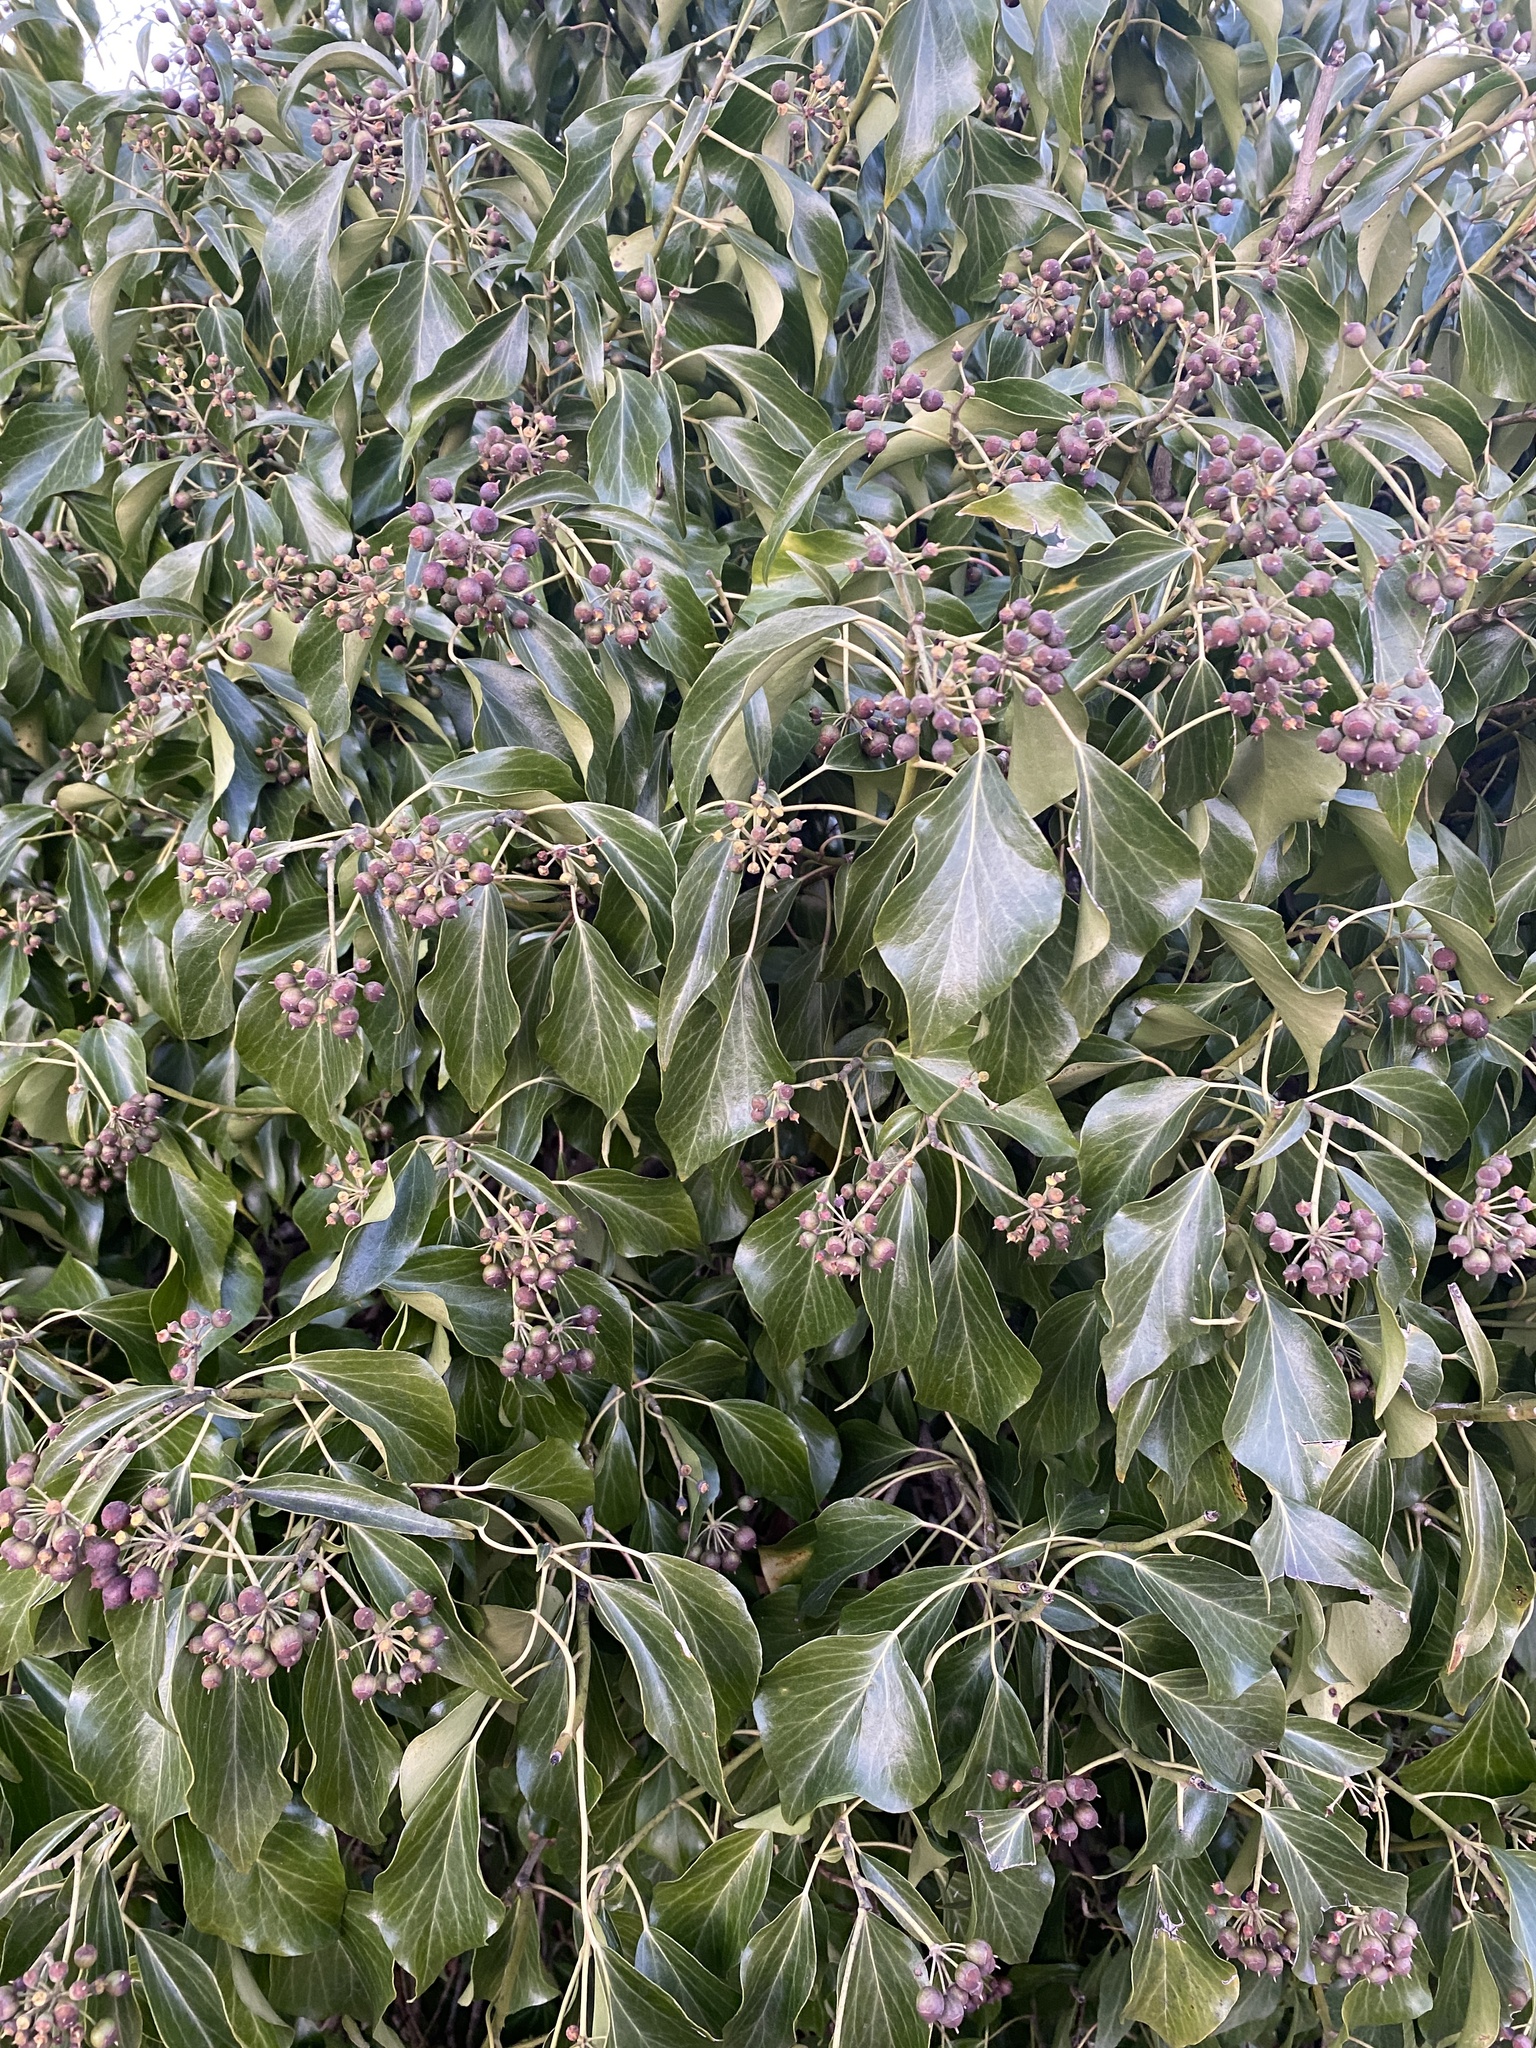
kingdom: Plantae
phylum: Tracheophyta
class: Magnoliopsida
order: Apiales
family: Araliaceae
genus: Hedera
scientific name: Hedera helix
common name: Ivy
